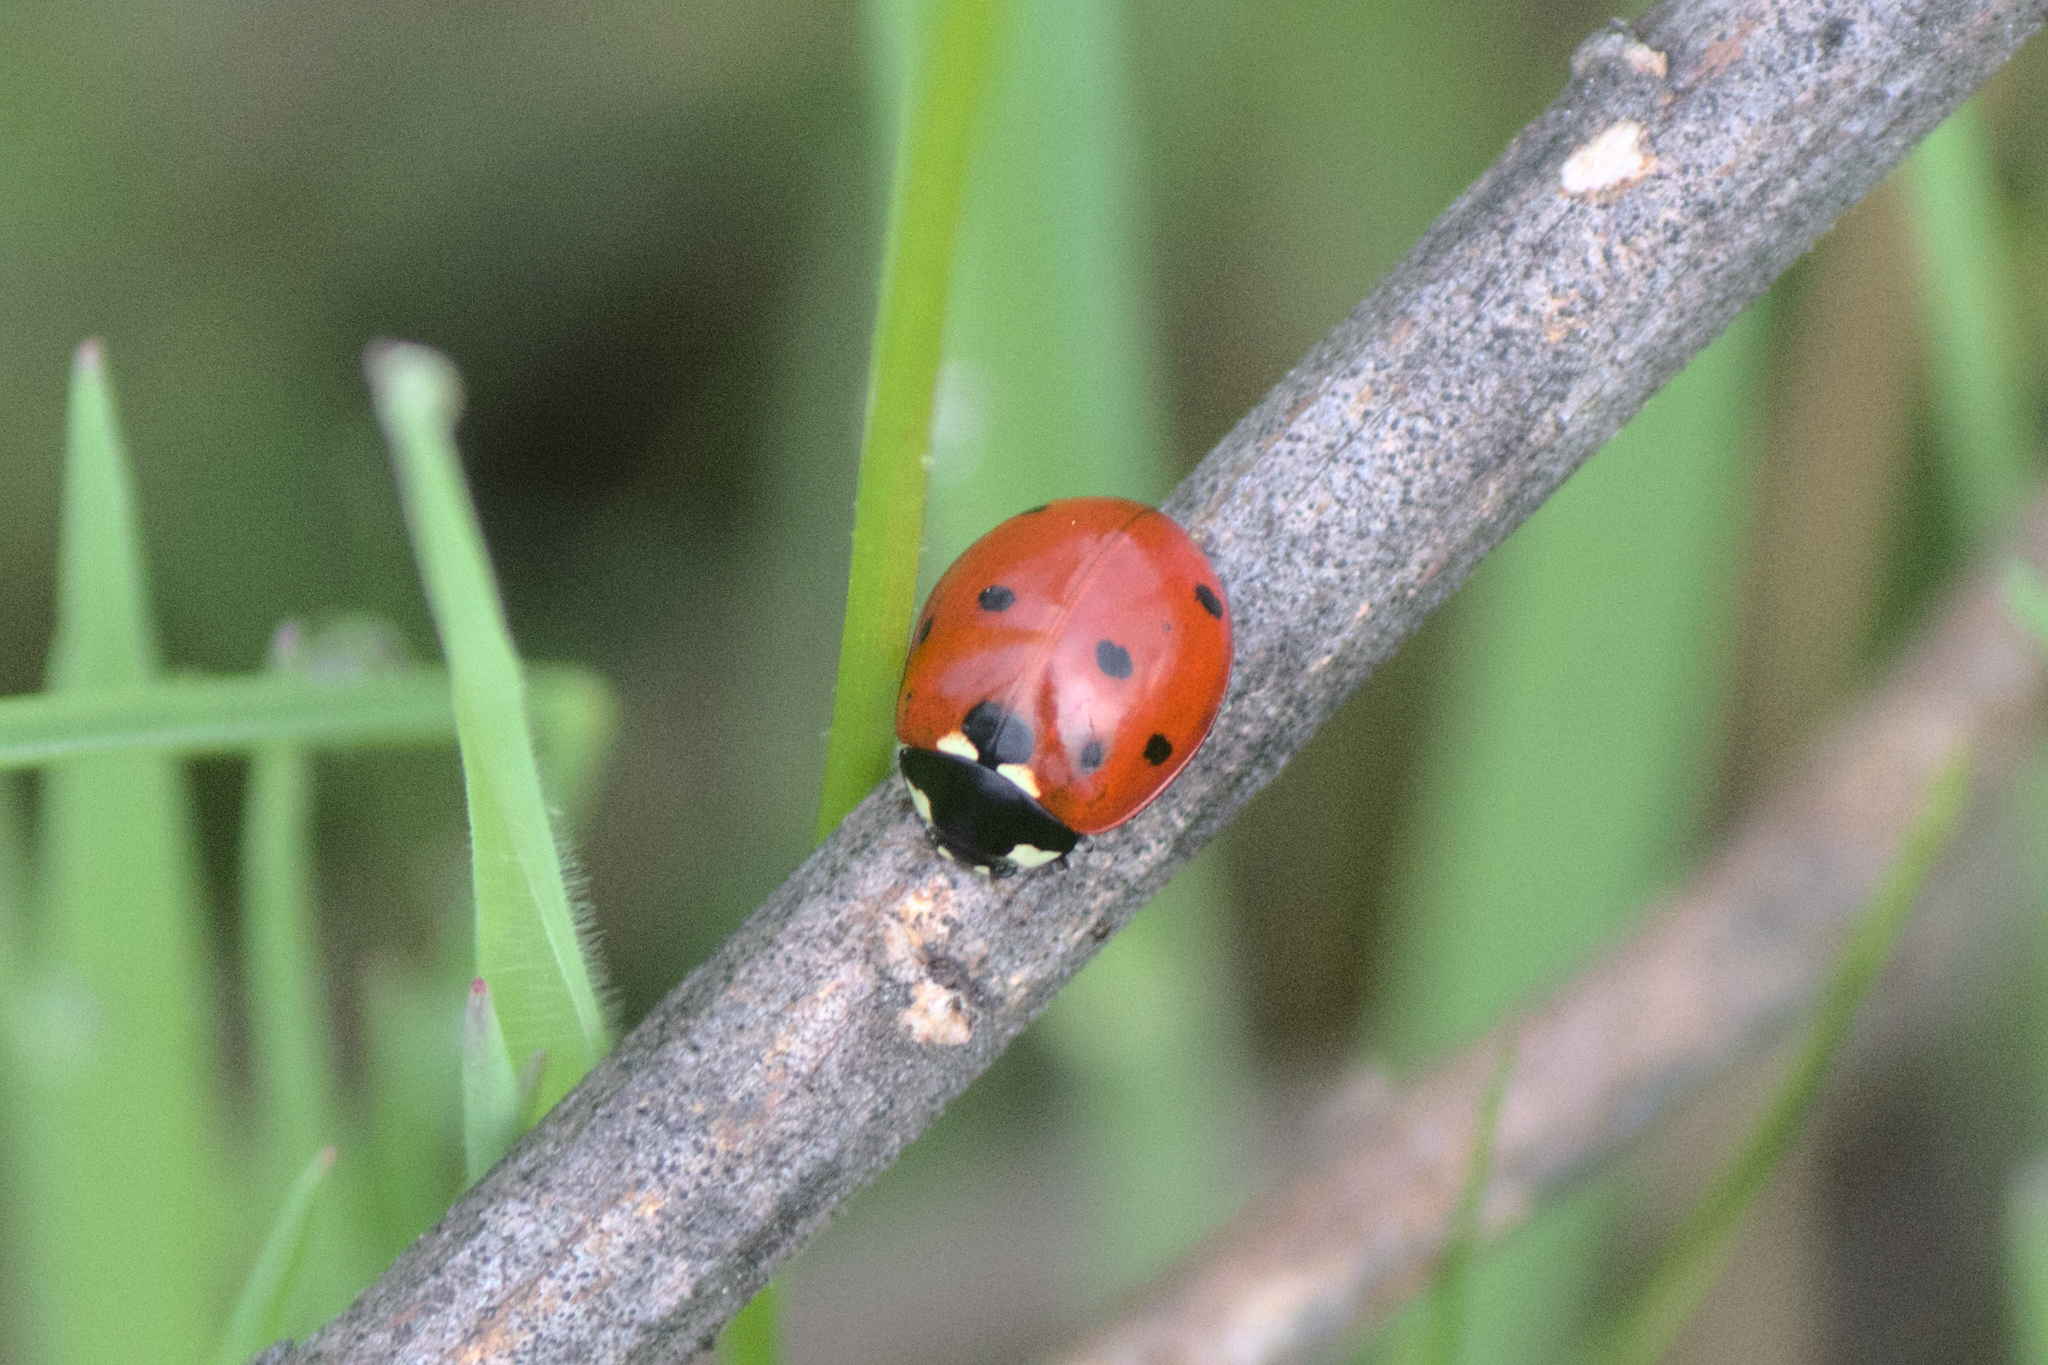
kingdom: Animalia
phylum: Arthropoda
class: Insecta
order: Coleoptera
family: Coccinellidae
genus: Coccinella
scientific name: Coccinella septempunctata
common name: Sevenspotted lady beetle
